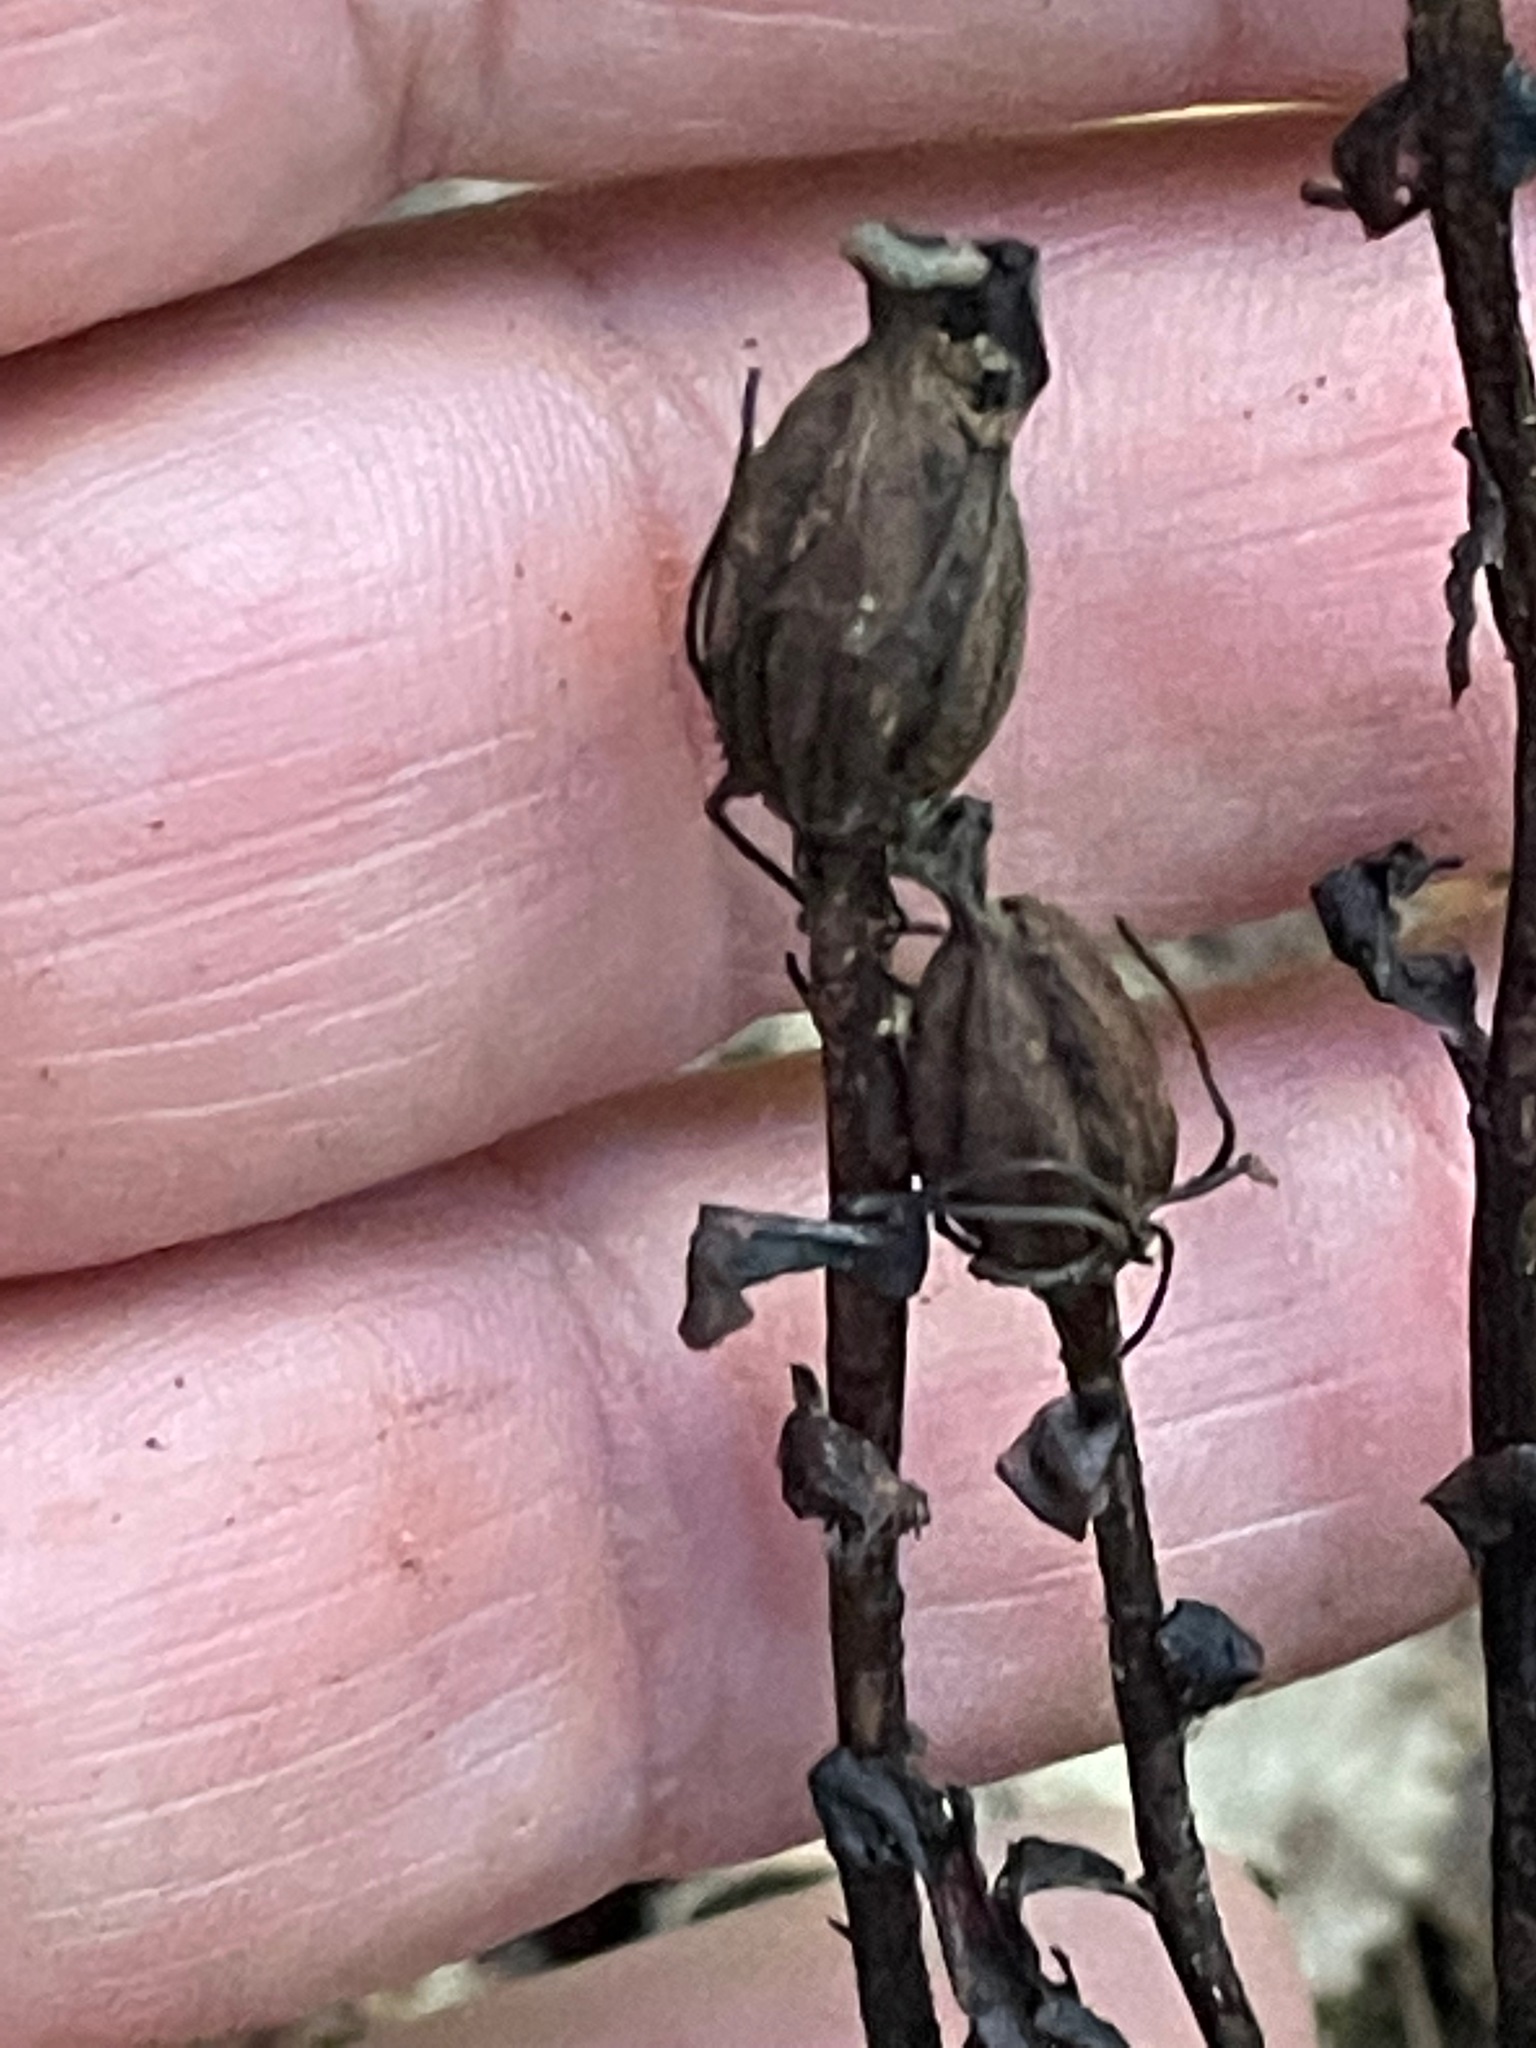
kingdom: Plantae
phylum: Tracheophyta
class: Magnoliopsida
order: Ericales
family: Ericaceae
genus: Monotropa
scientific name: Monotropa uniflora
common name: Convulsion root
